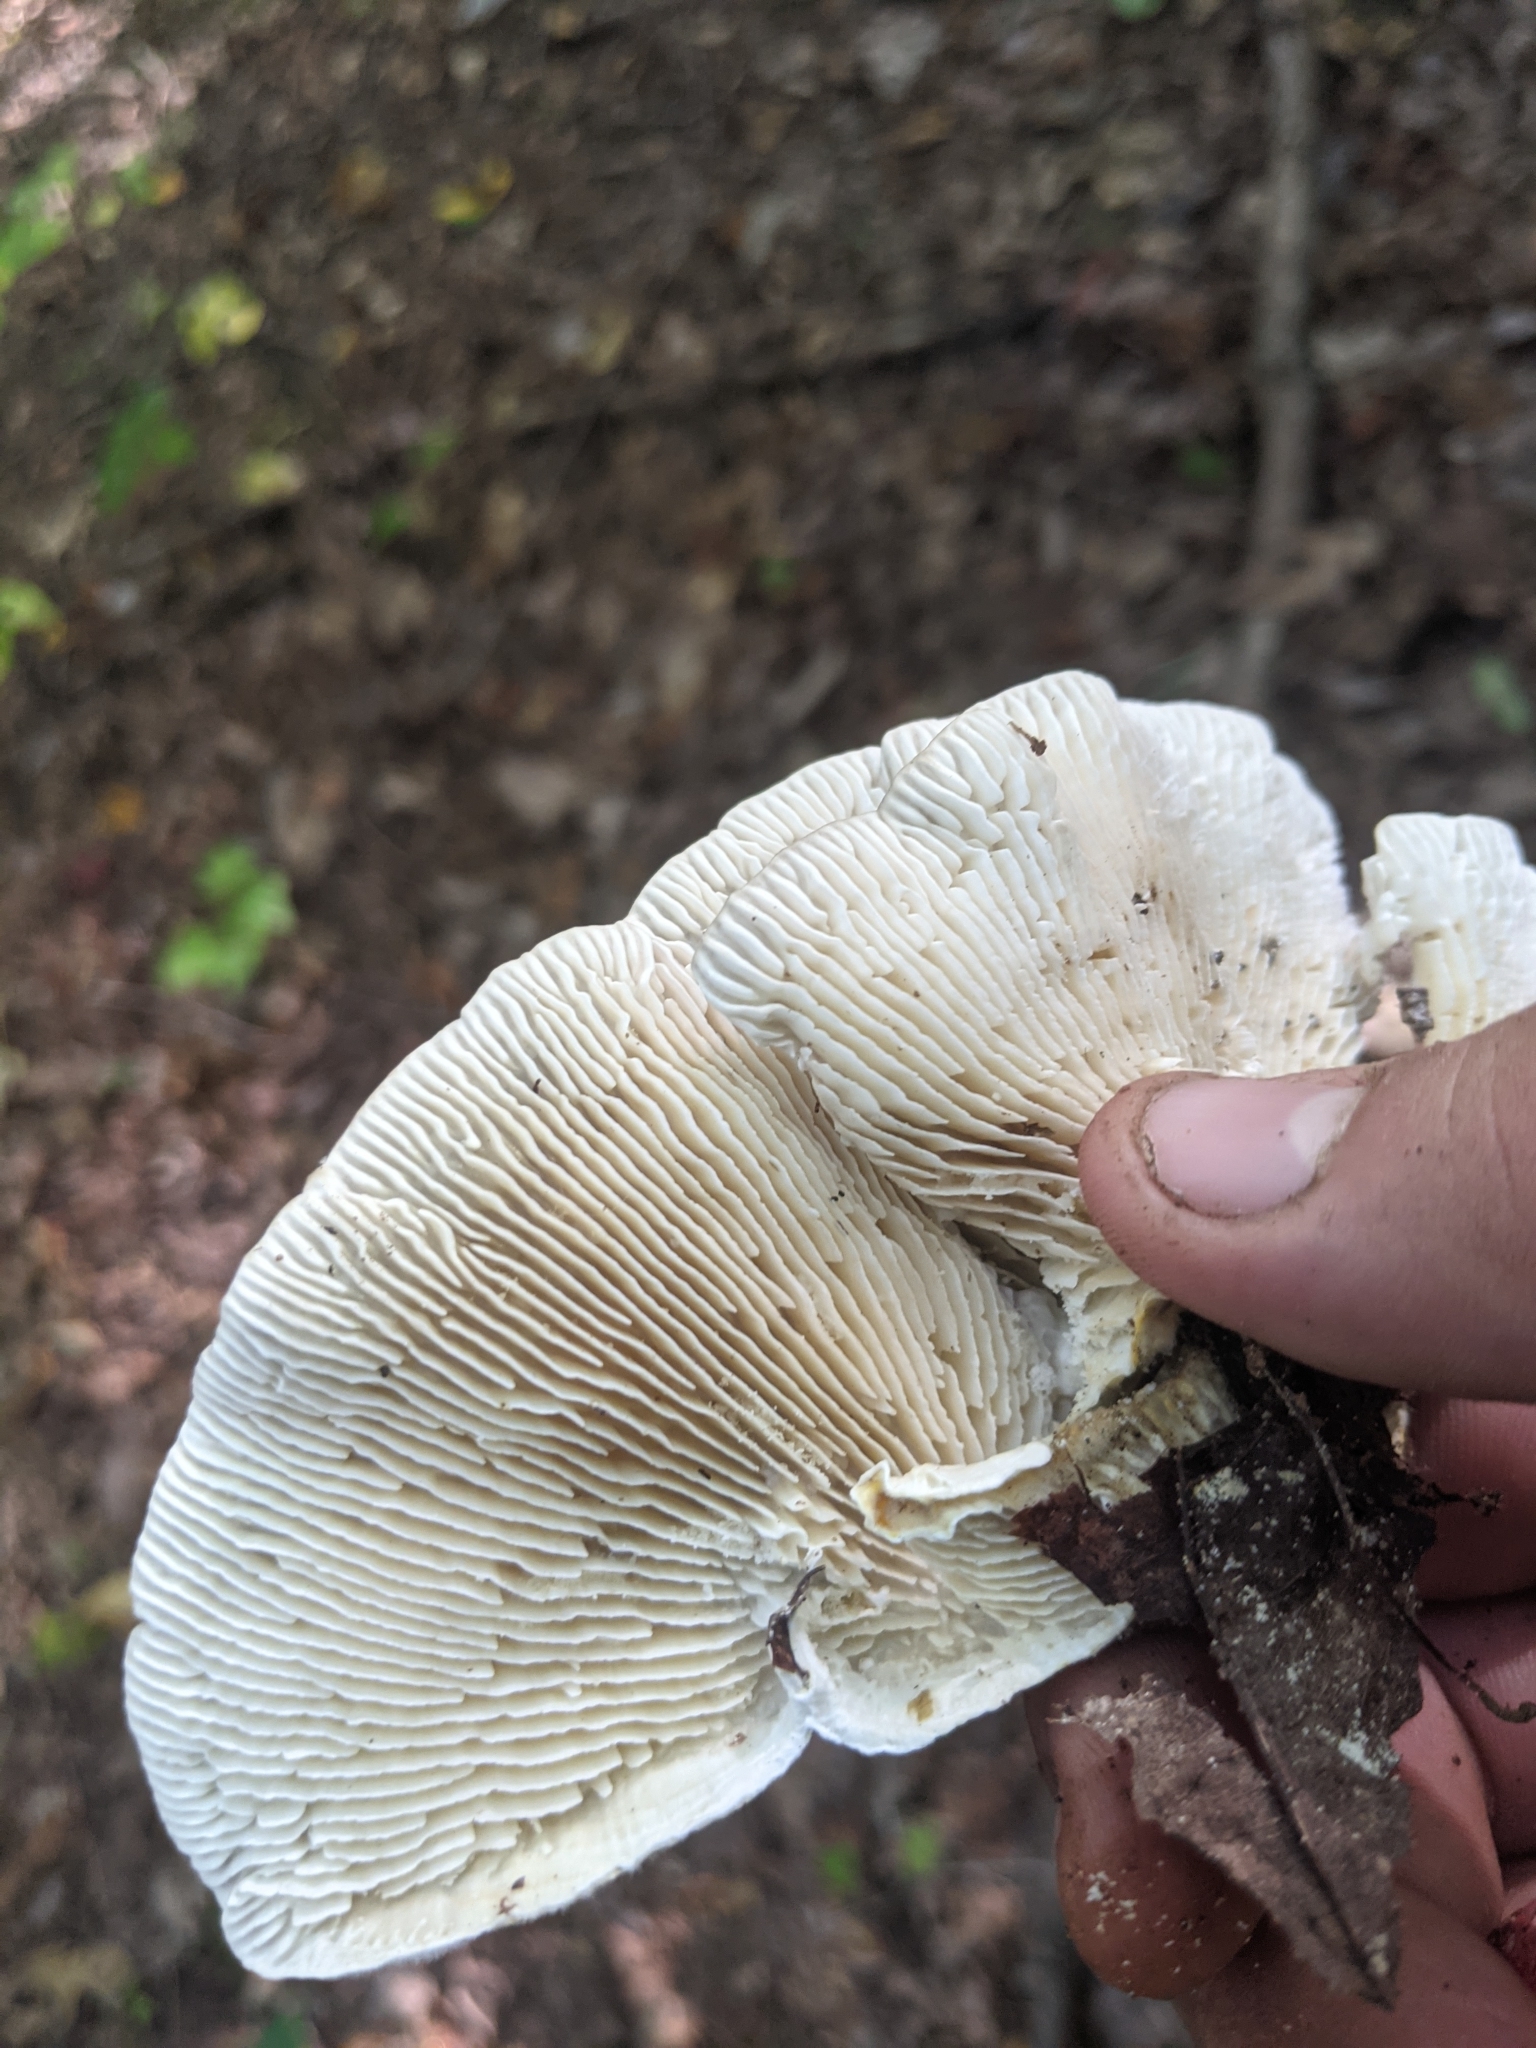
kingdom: Fungi
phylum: Basidiomycota
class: Agaricomycetes
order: Polyporales
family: Polyporaceae
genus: Lenzites
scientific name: Lenzites betulinus
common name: Birch mazegill
